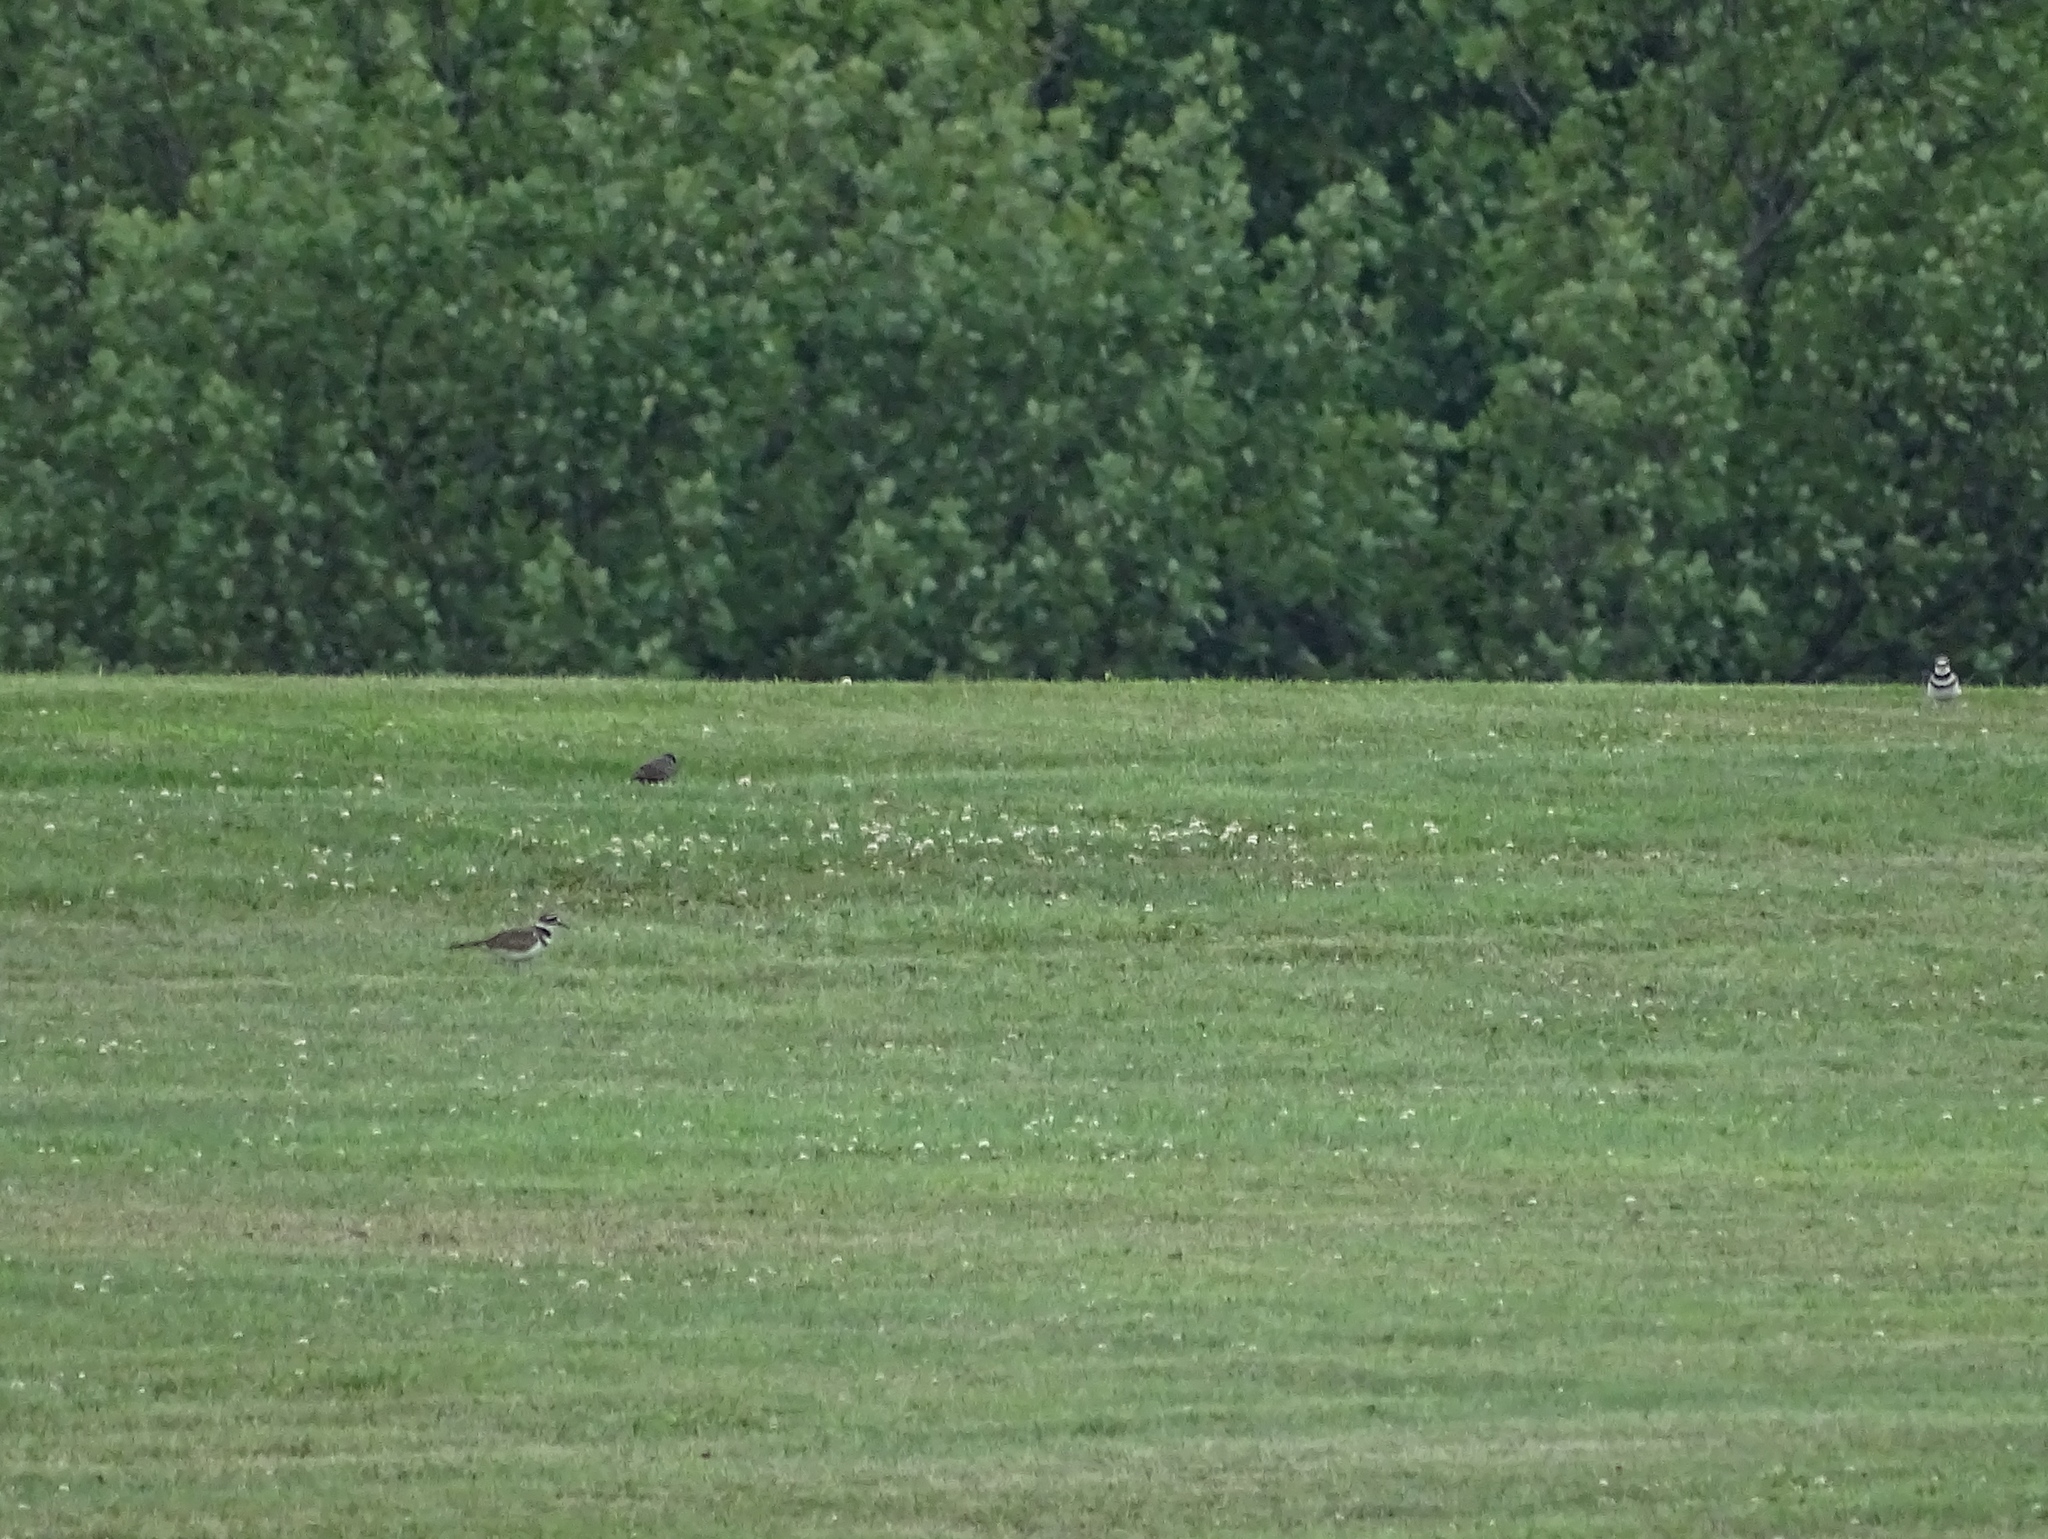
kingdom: Animalia
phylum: Chordata
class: Aves
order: Charadriiformes
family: Charadriidae
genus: Charadrius
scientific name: Charadrius vociferus
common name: Killdeer
